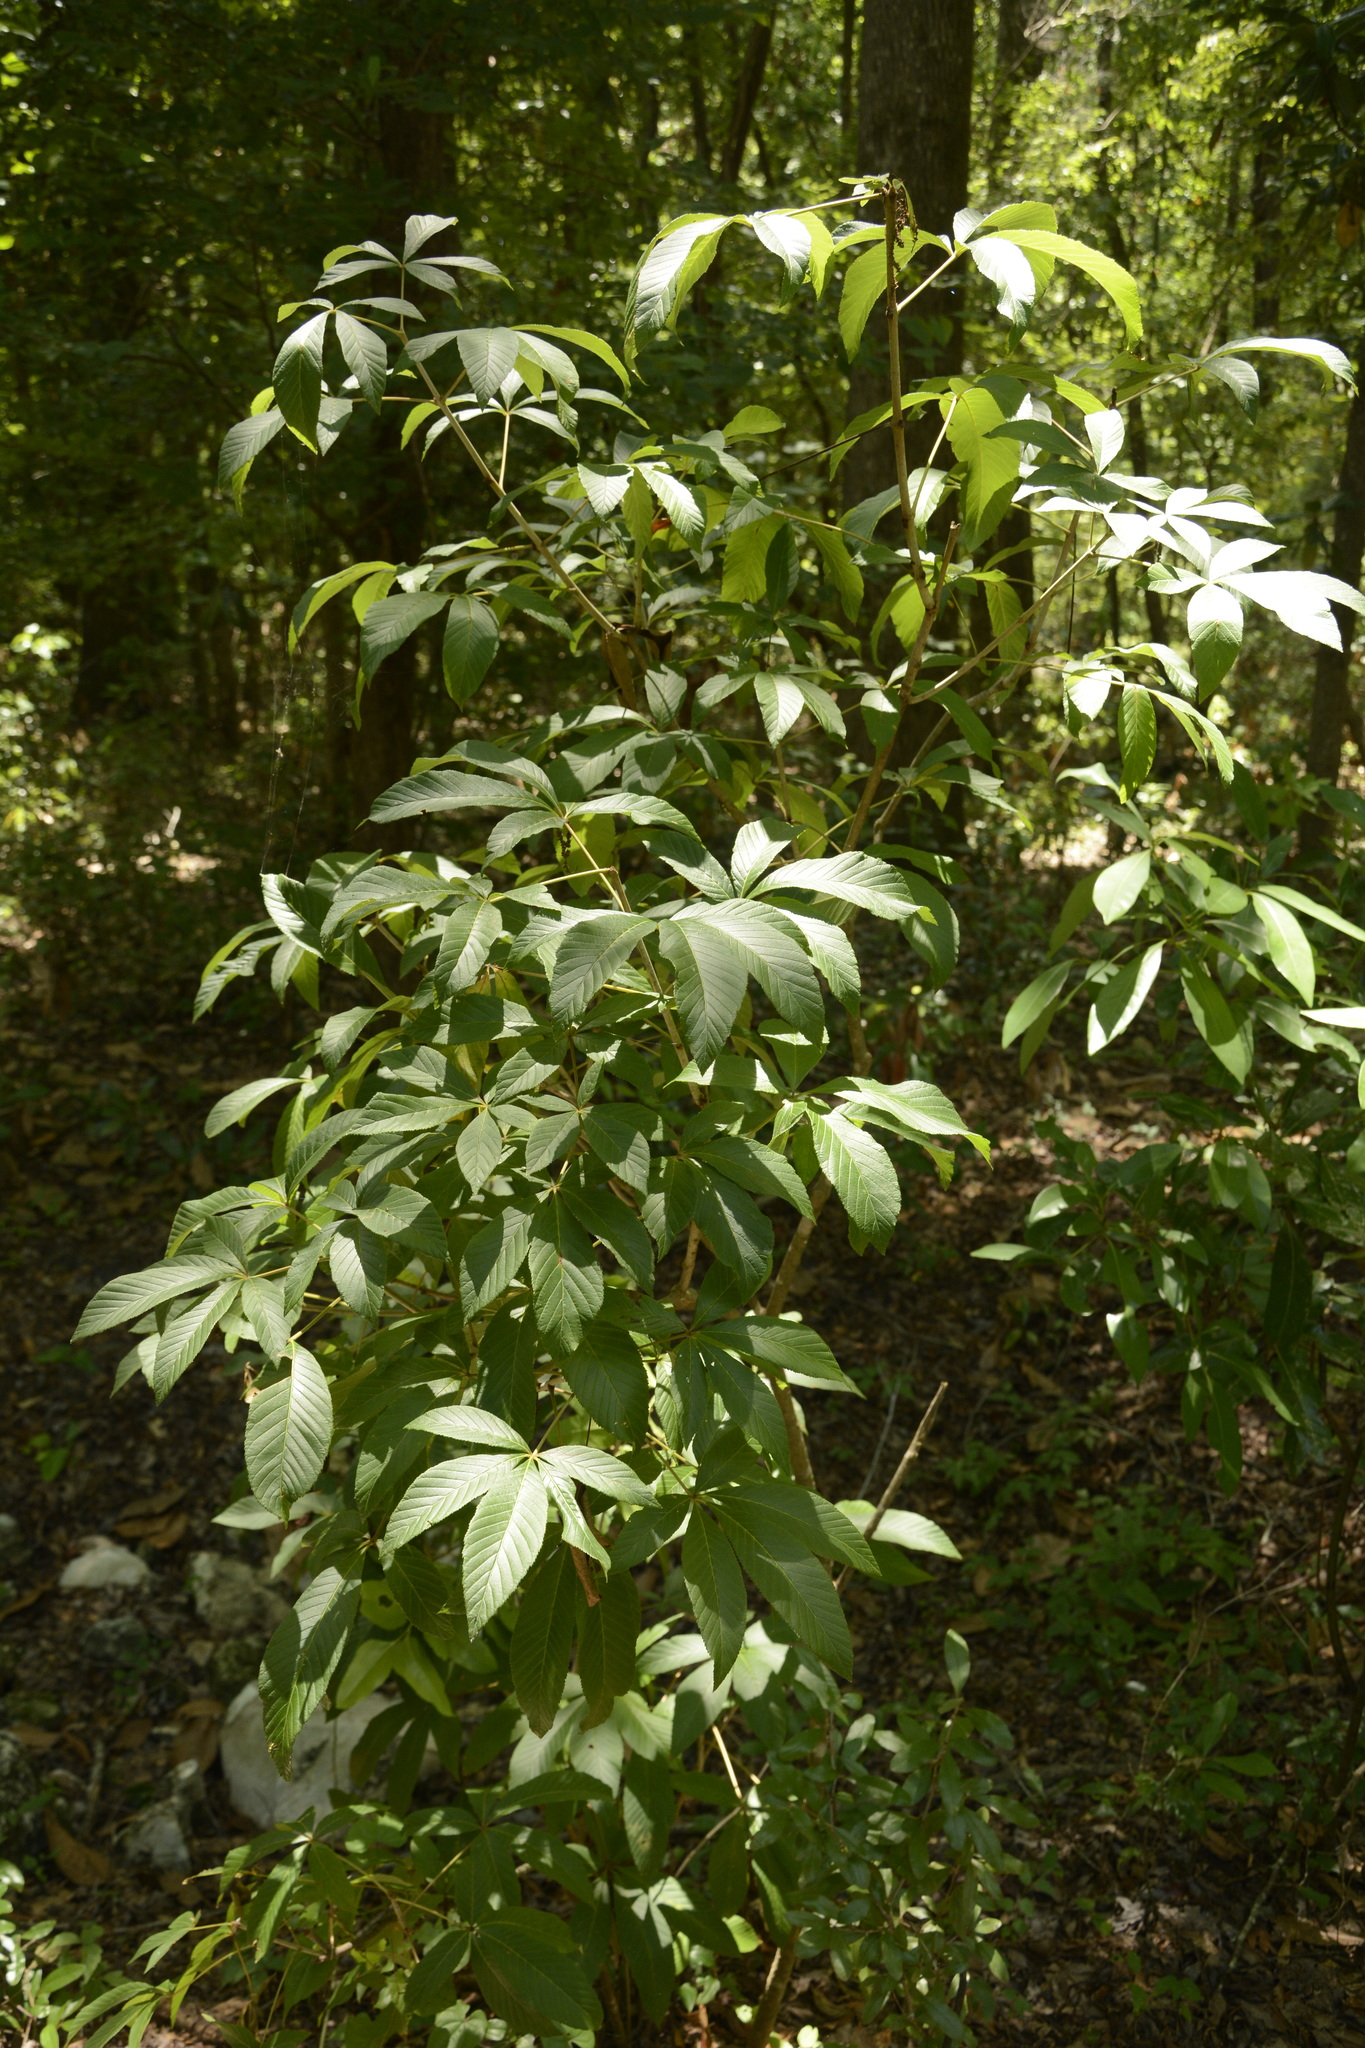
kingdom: Plantae
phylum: Tracheophyta
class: Magnoliopsida
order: Sapindales
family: Sapindaceae
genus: Aesculus
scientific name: Aesculus pavia
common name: Red buckeye
